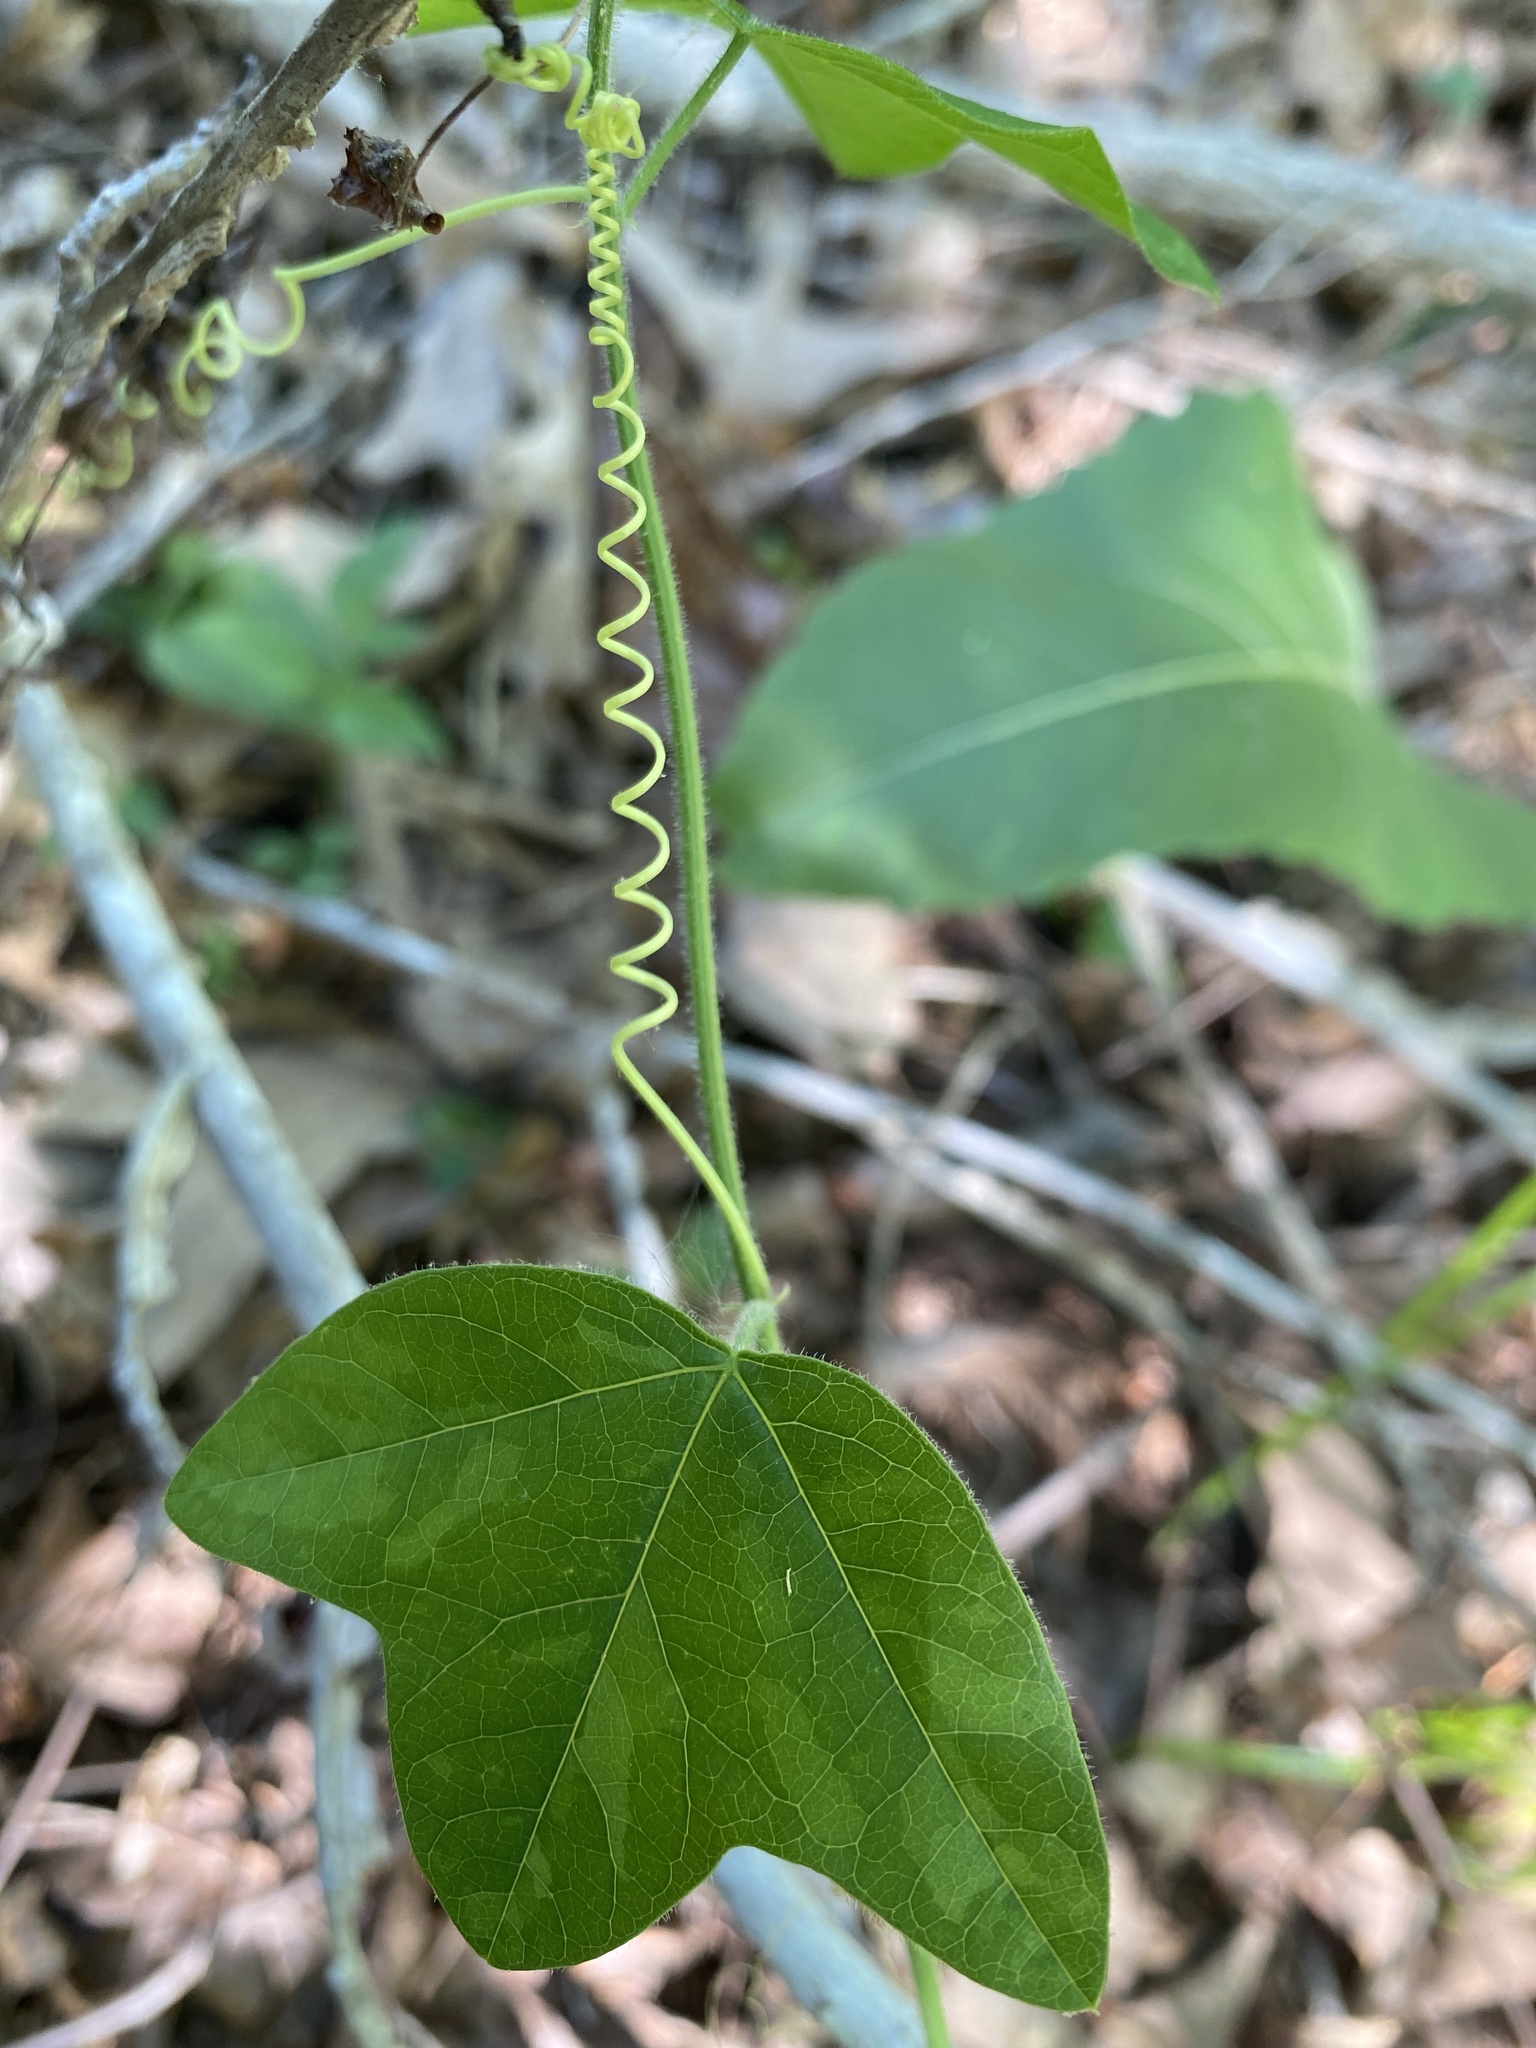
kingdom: Plantae
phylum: Tracheophyta
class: Magnoliopsida
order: Malpighiales
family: Passifloraceae
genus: Passiflora
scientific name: Passiflora lutea
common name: Yellow passionflower
